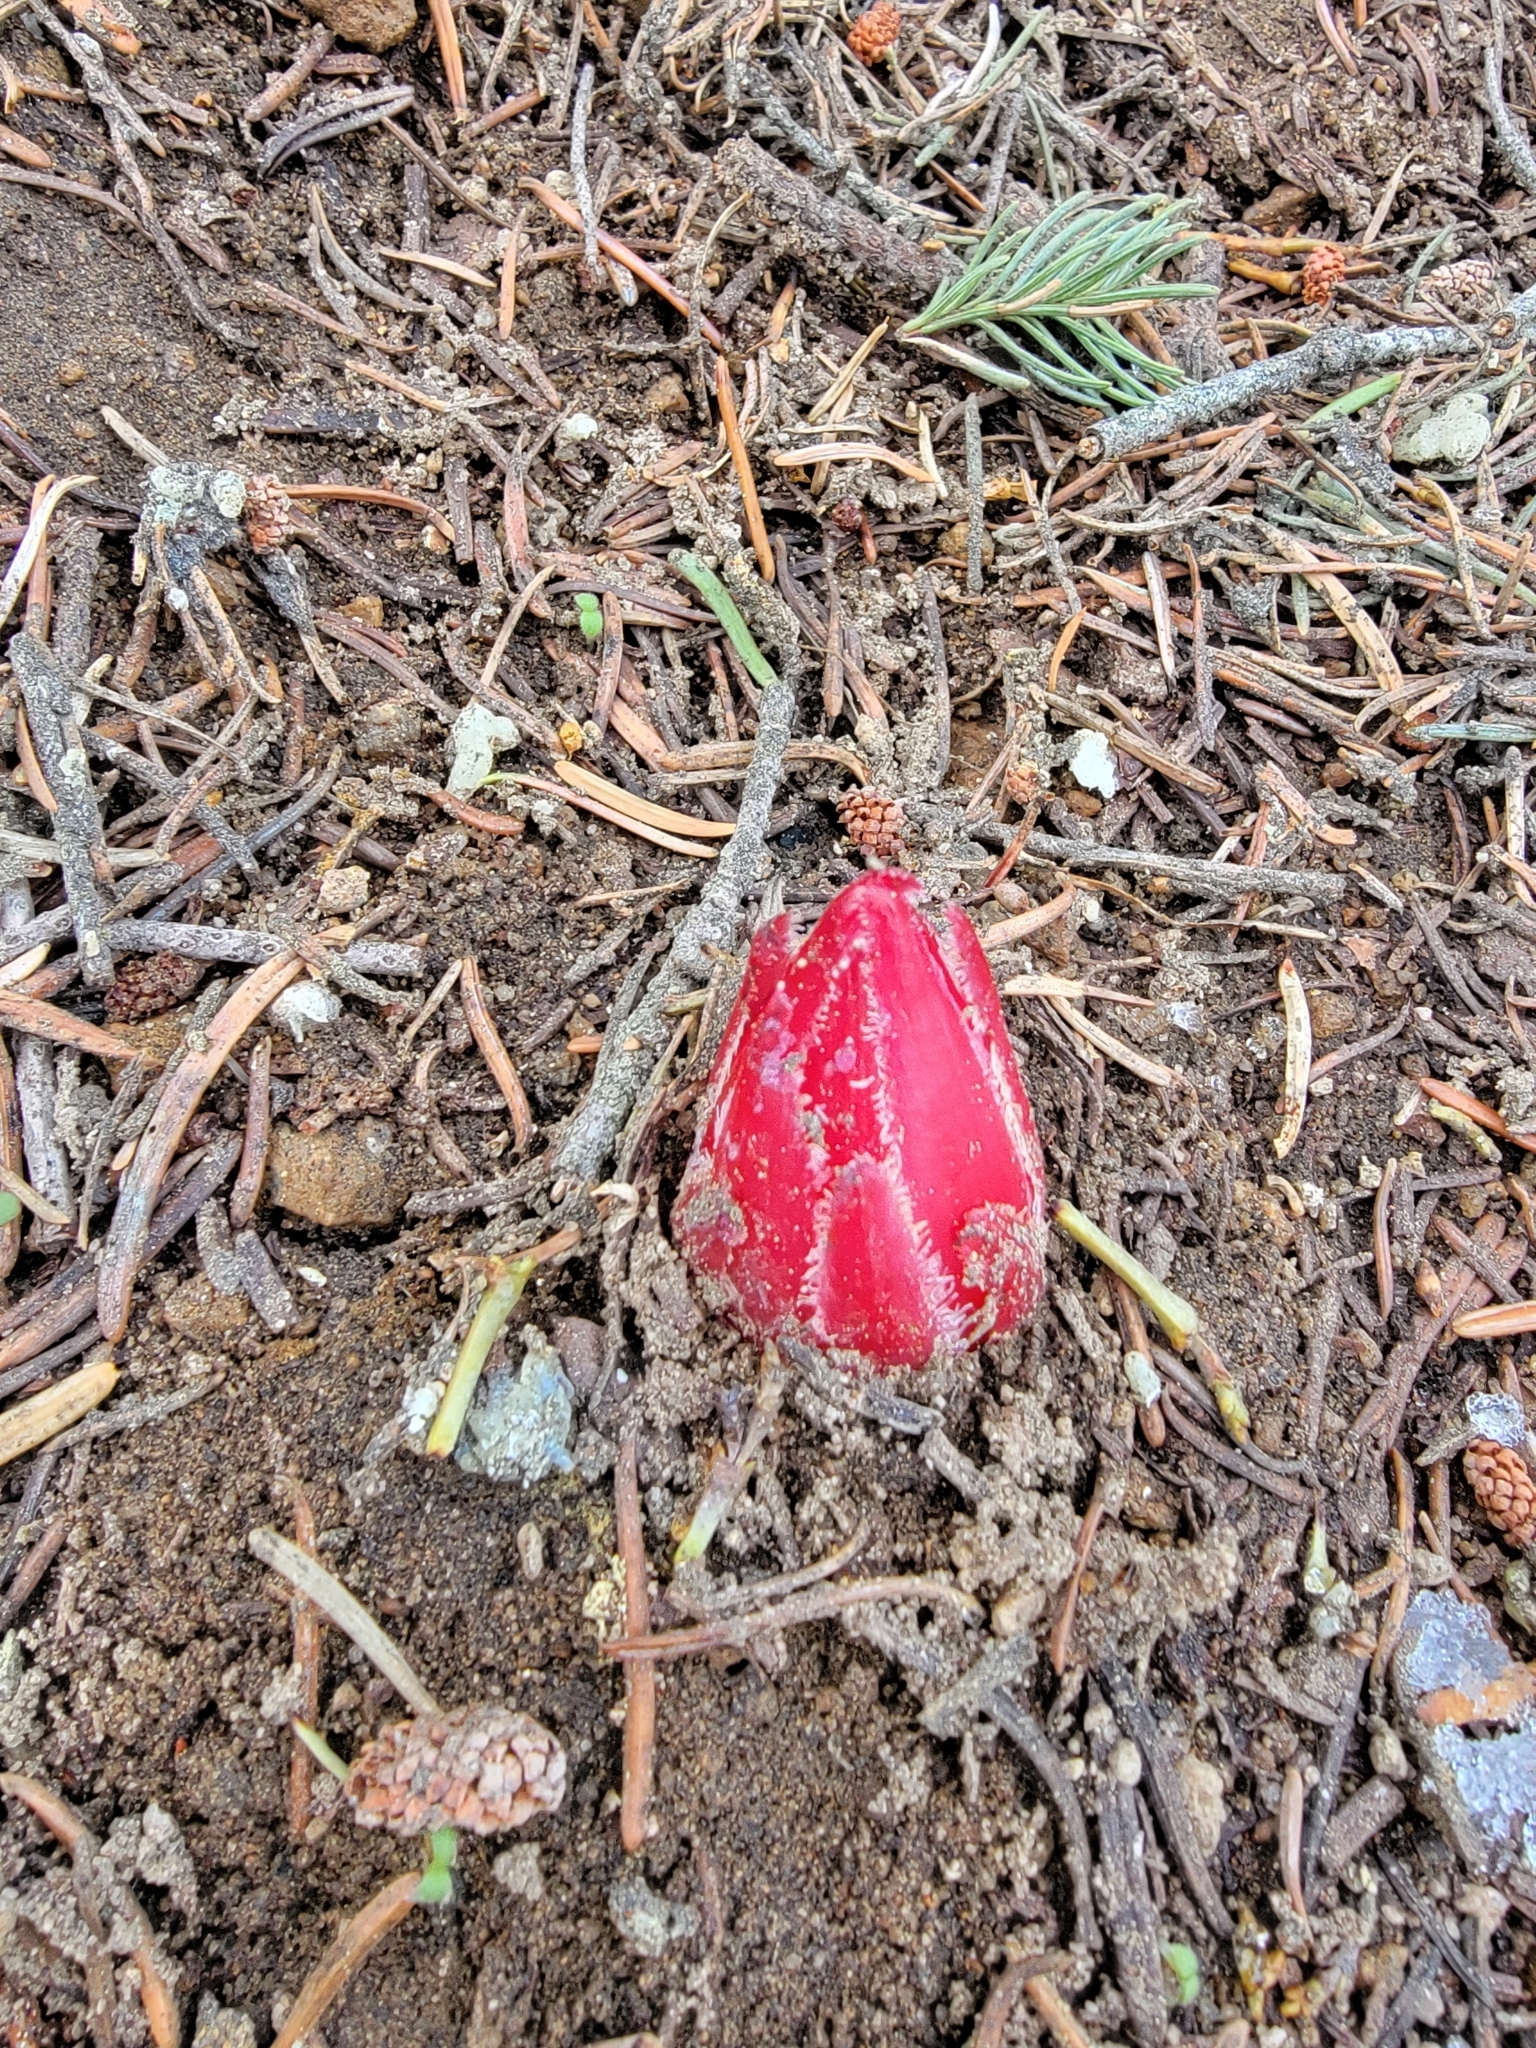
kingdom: Plantae
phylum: Tracheophyta
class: Magnoliopsida
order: Ericales
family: Ericaceae
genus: Sarcodes
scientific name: Sarcodes sanguinea
